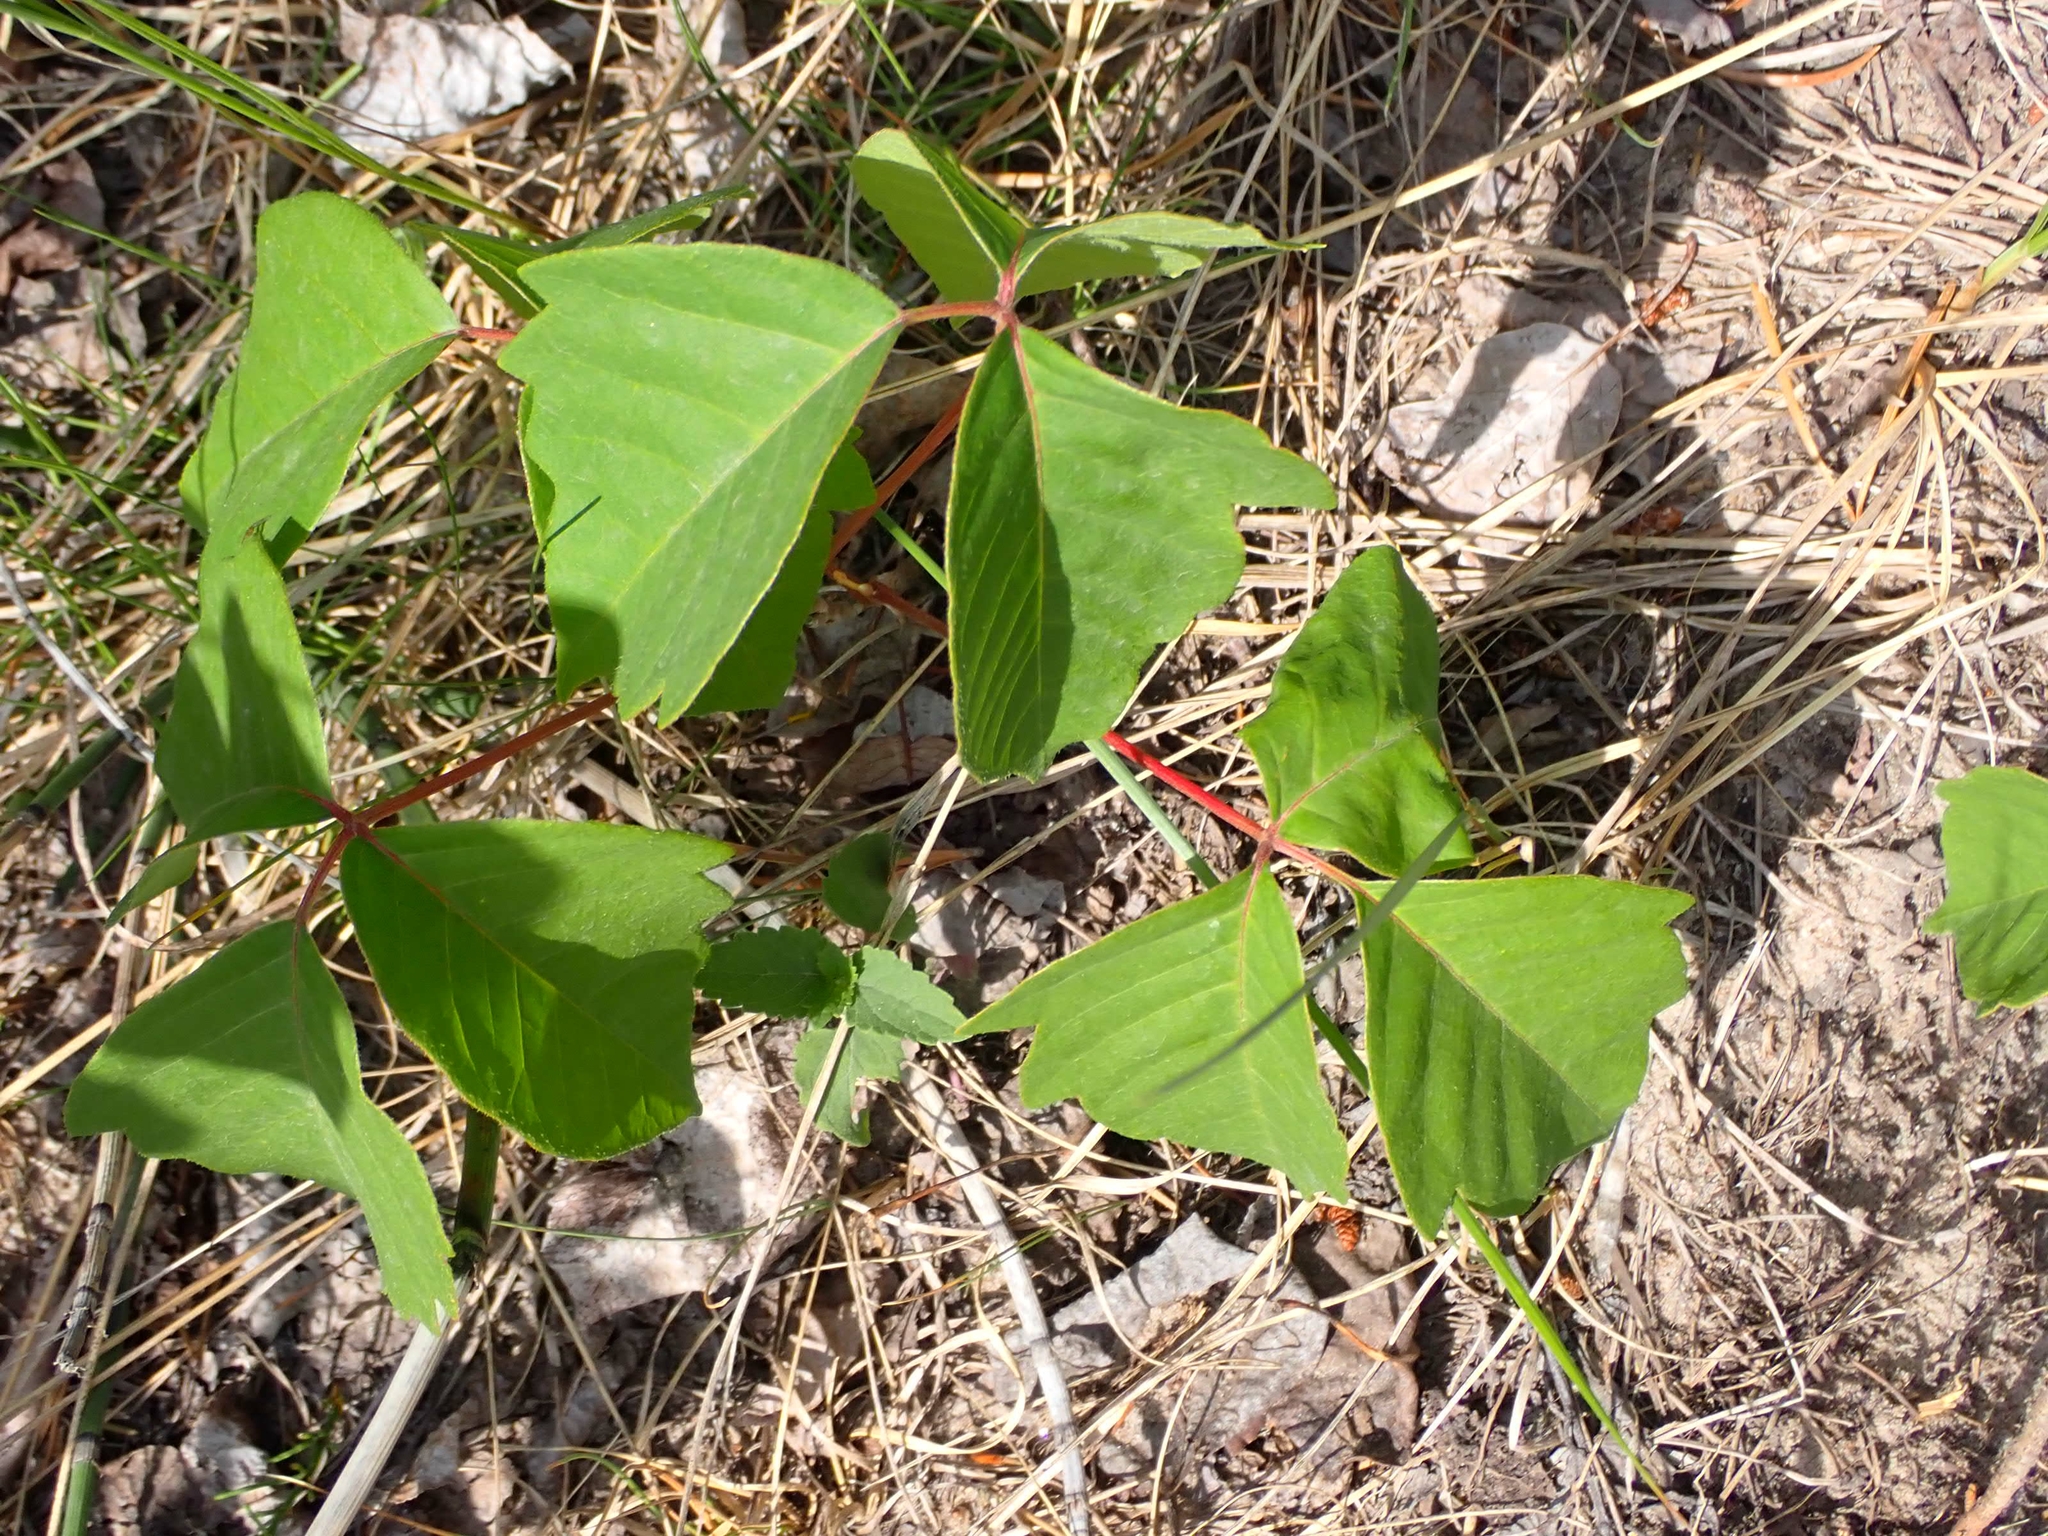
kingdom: Plantae
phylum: Tracheophyta
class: Magnoliopsida
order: Sapindales
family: Anacardiaceae
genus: Toxicodendron
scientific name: Toxicodendron rydbergii
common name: Rydberg's poison-ivy
